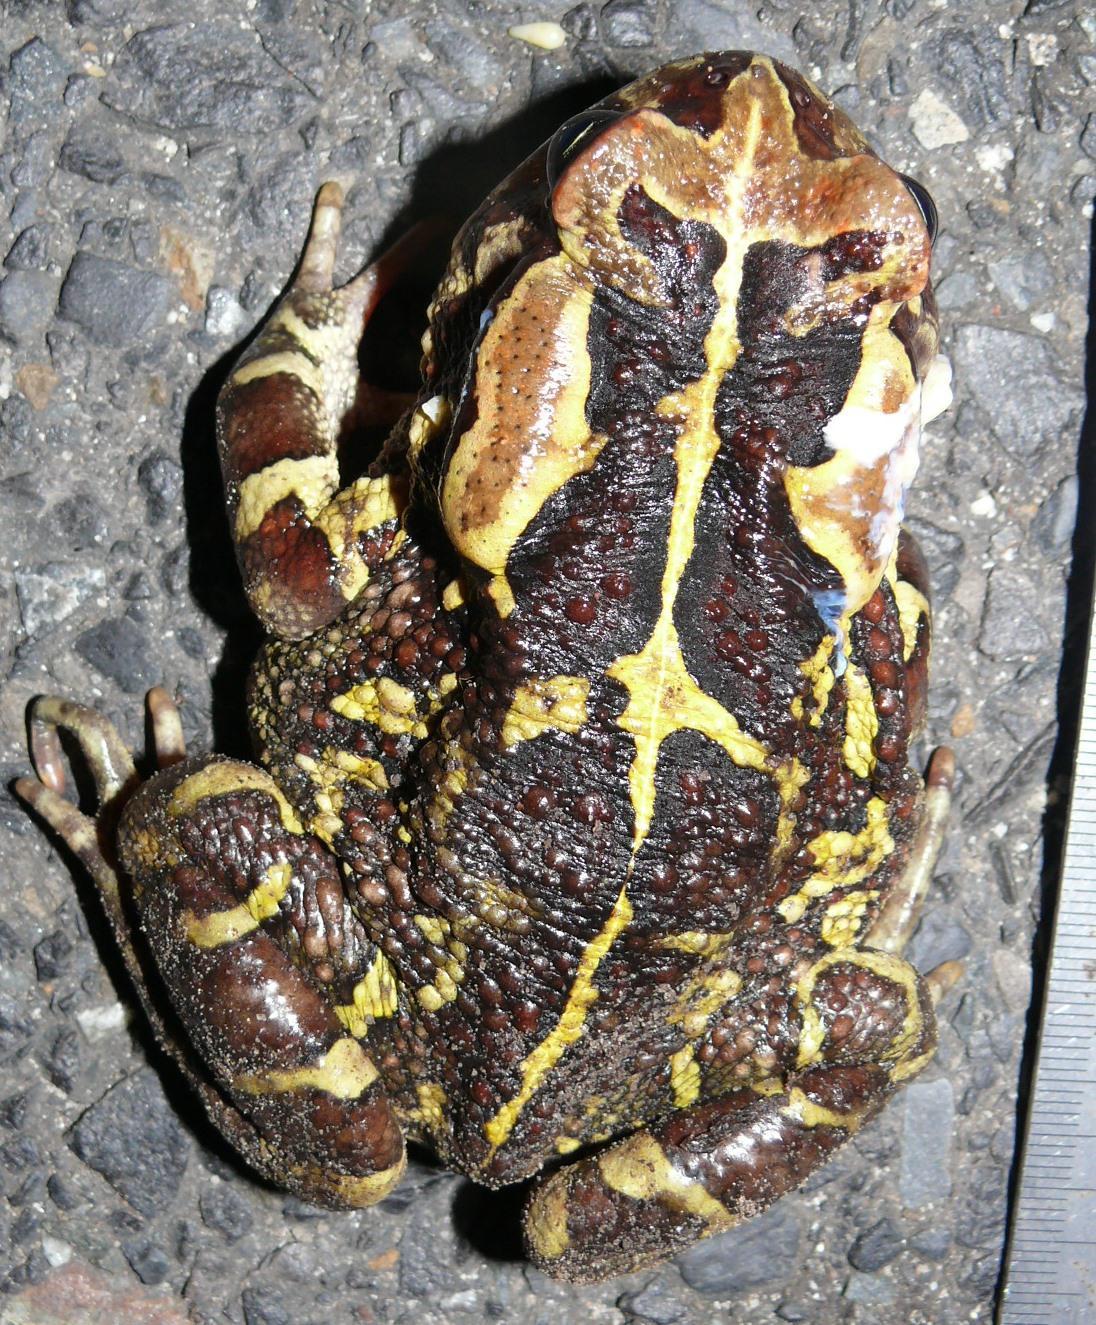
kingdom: Animalia
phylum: Chordata
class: Amphibia
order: Anura
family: Bufonidae
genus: Sclerophrys
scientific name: Sclerophrys pantherina
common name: Panther toad
